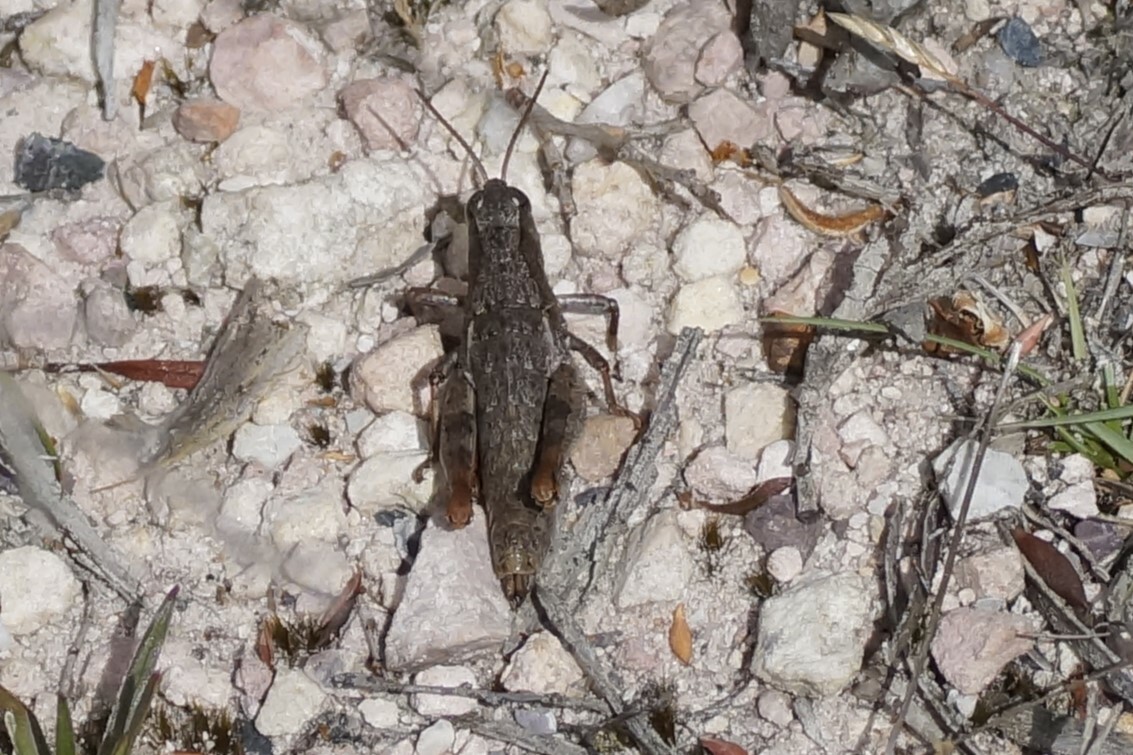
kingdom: Animalia
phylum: Arthropoda
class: Insecta
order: Orthoptera
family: Acrididae
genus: Tasmaniacris
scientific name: Tasmaniacris tasmaniensis
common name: Tasmanian grasshopper
